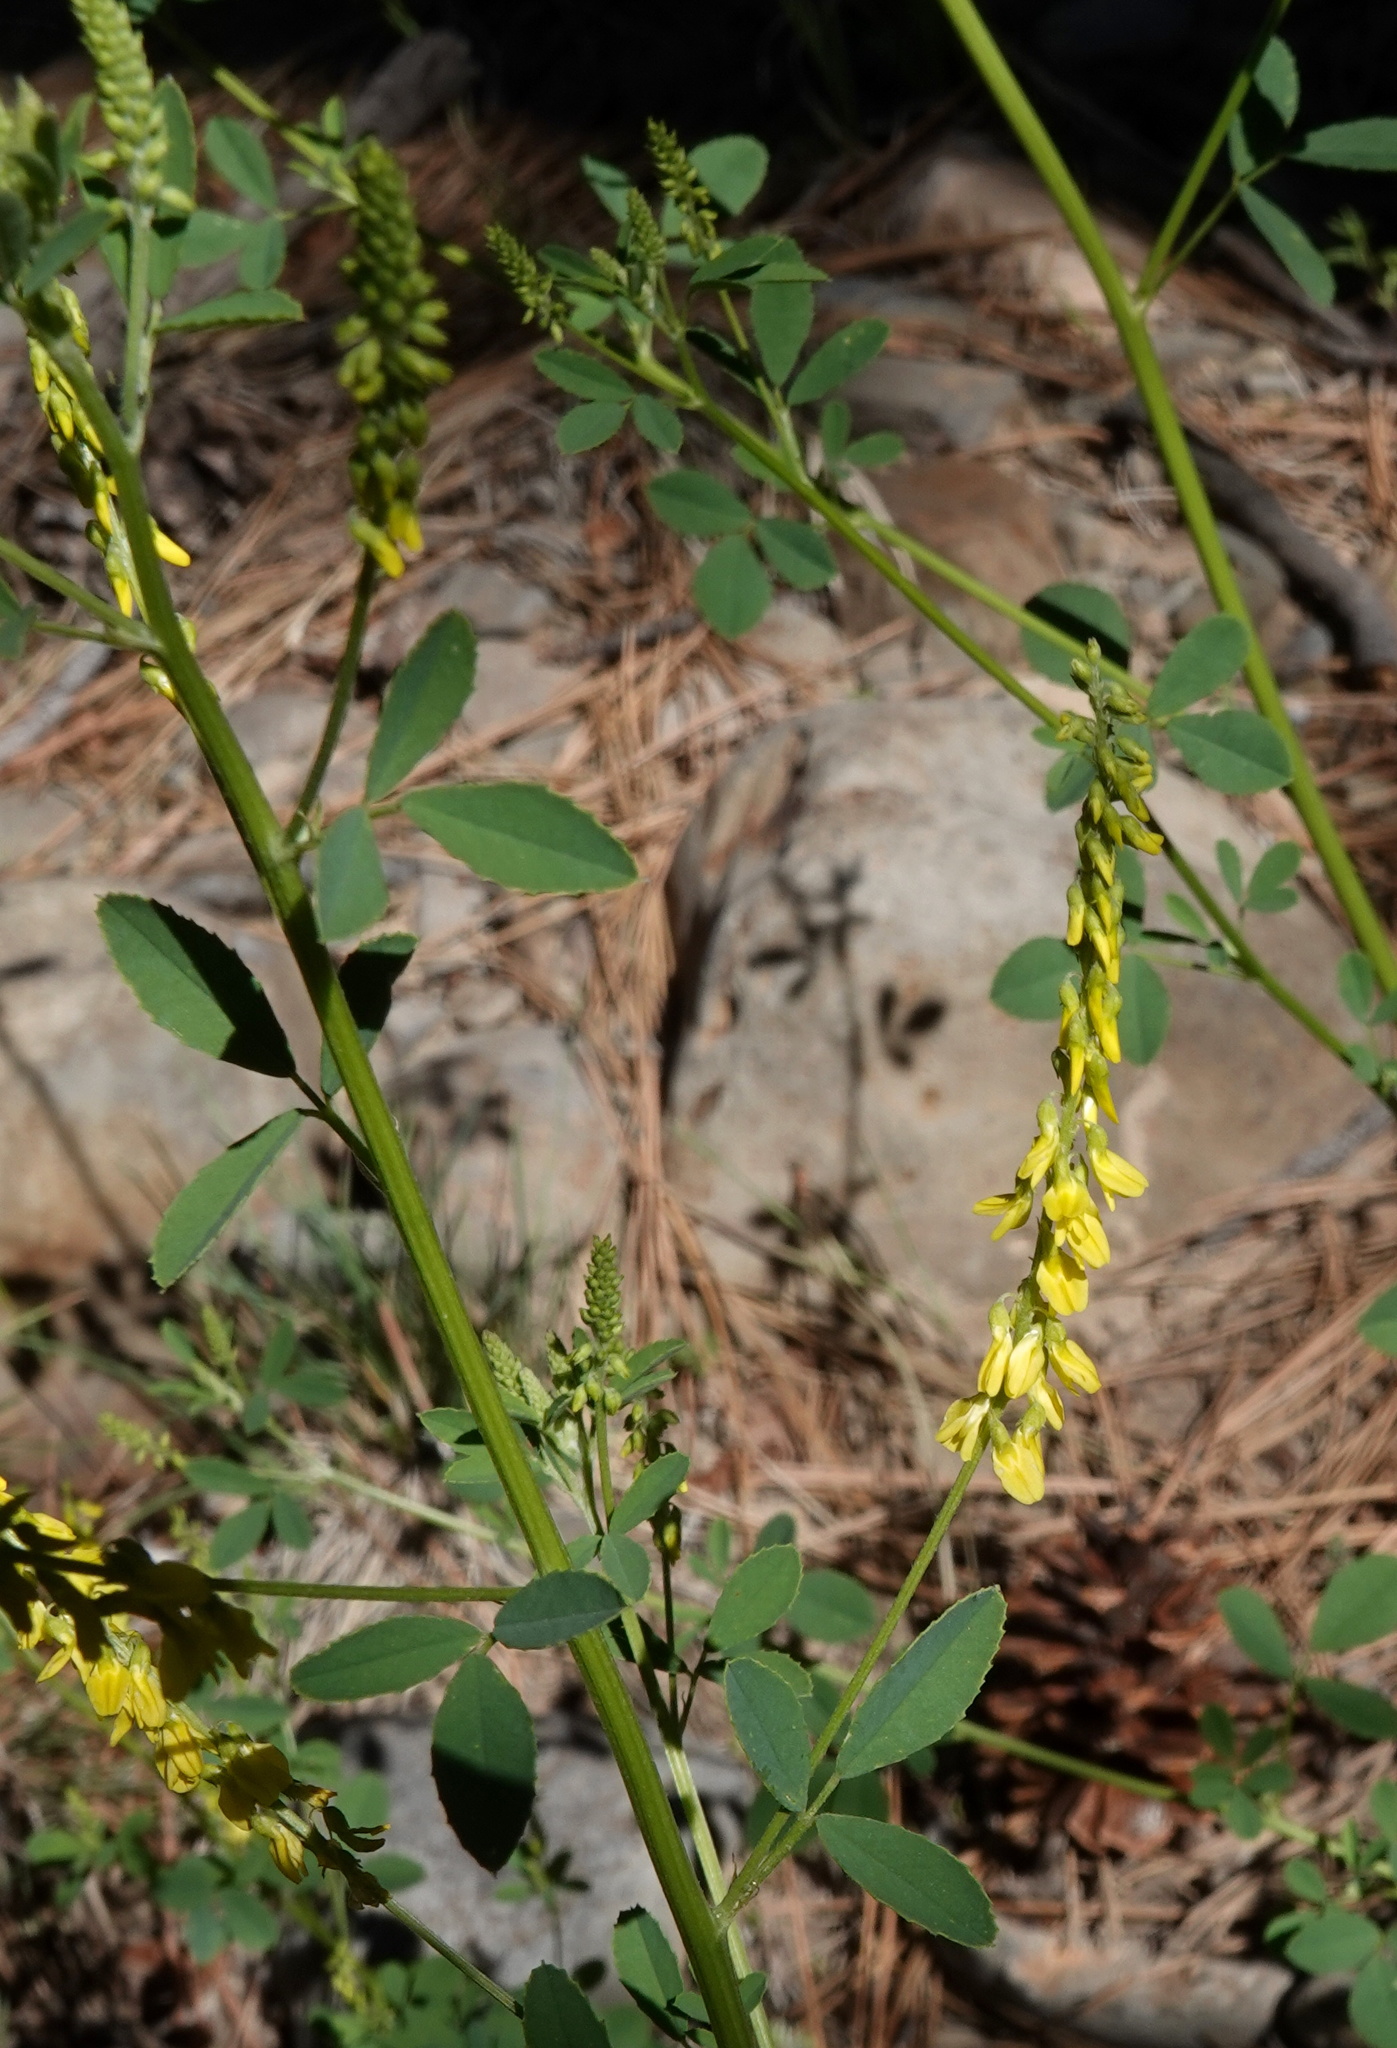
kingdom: Plantae
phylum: Tracheophyta
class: Magnoliopsida
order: Fabales
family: Fabaceae
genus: Melilotus
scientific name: Melilotus officinalis
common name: Sweetclover
